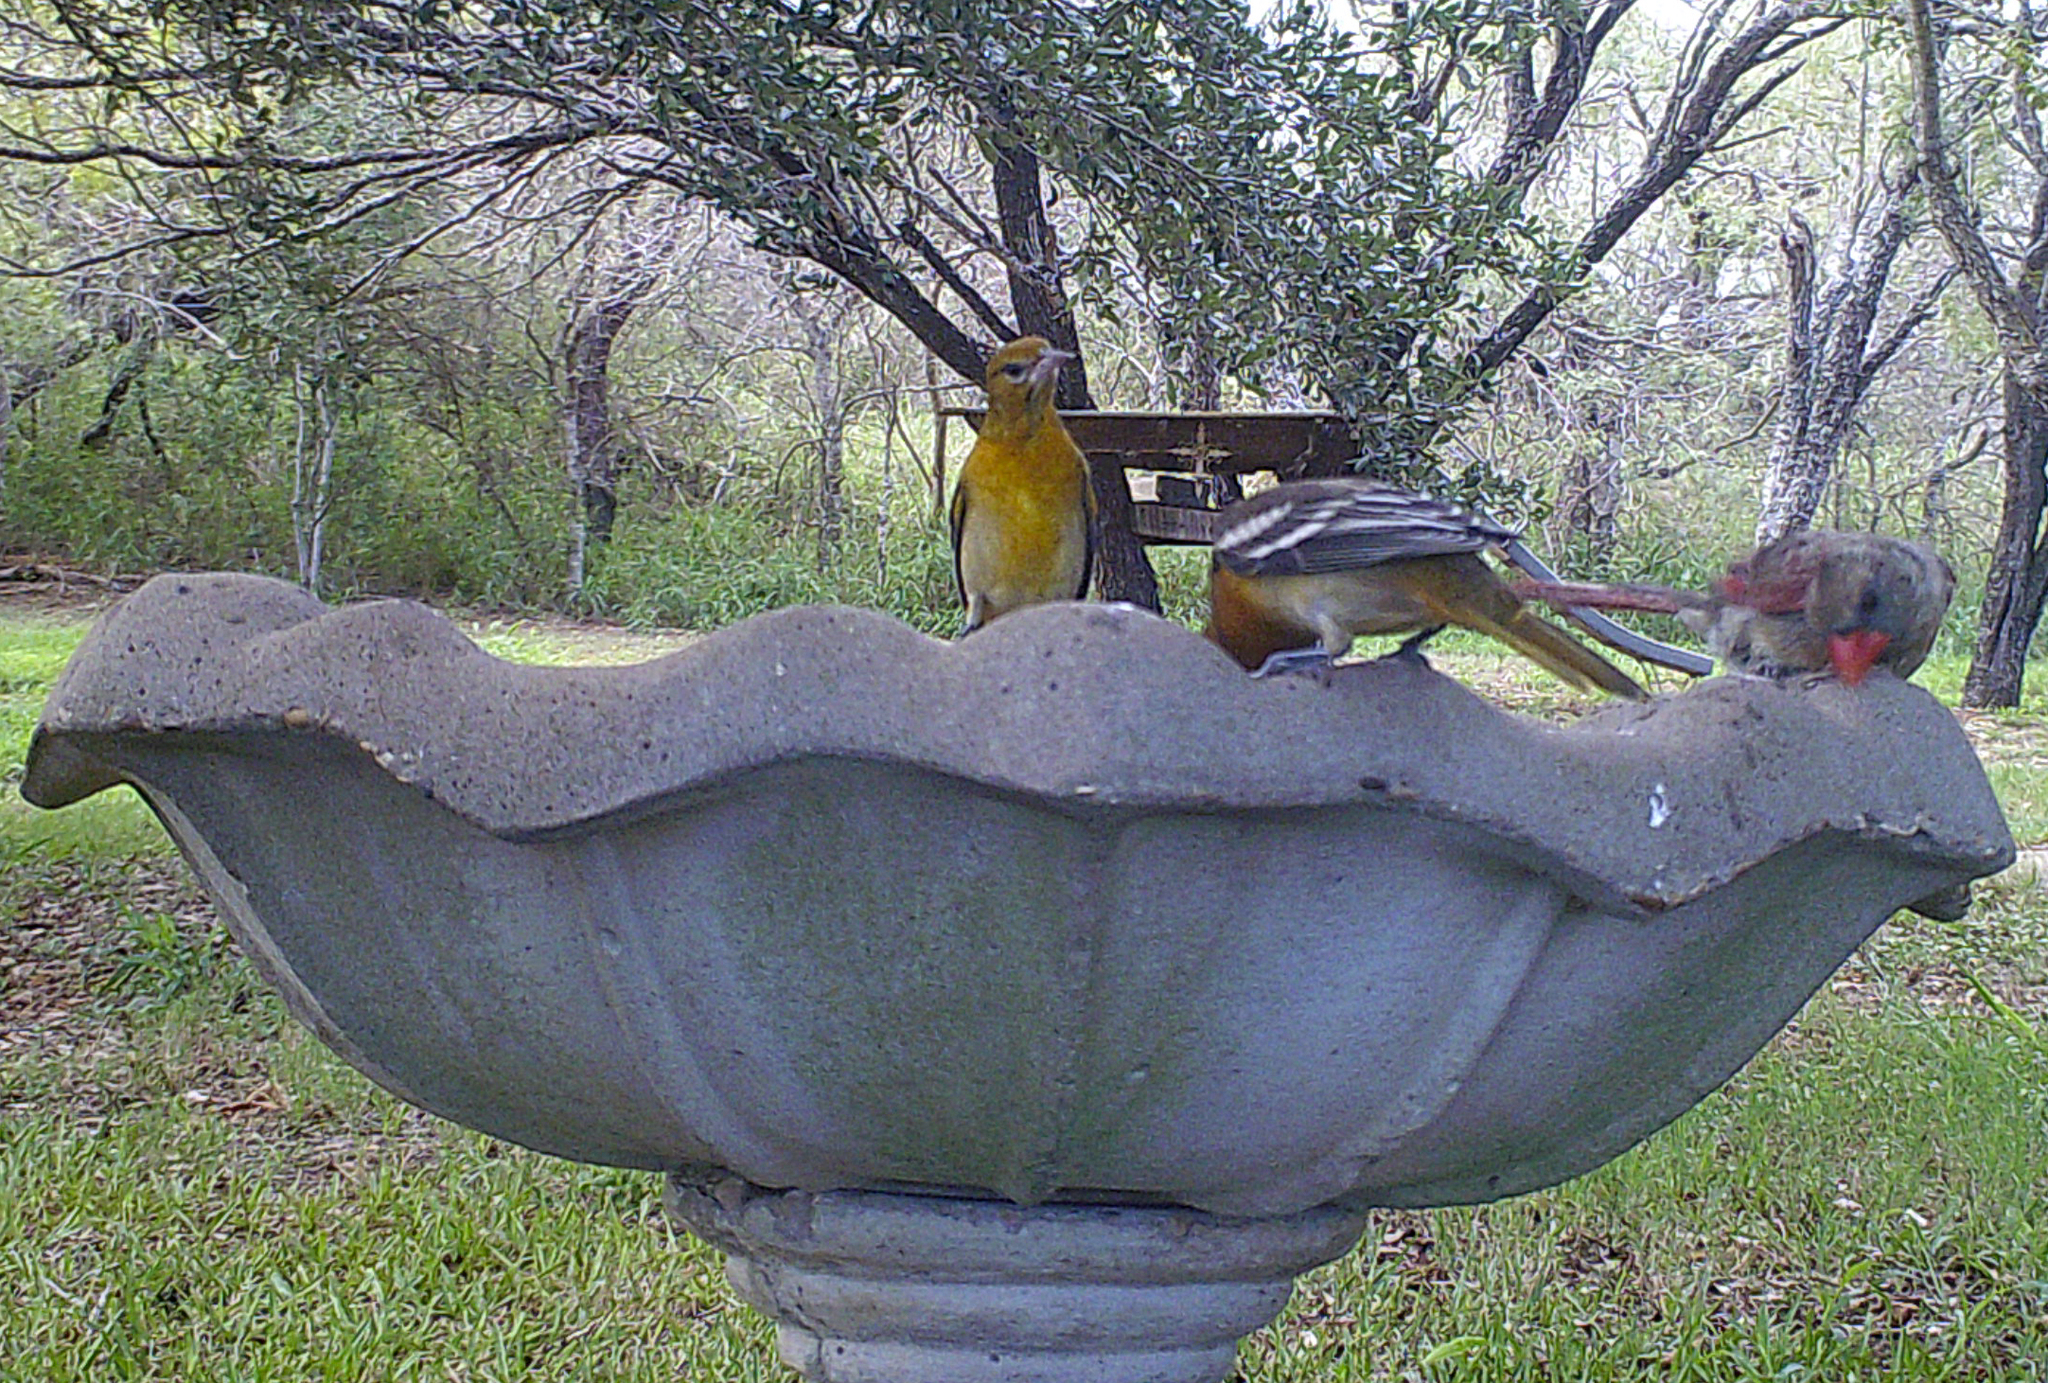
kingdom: Animalia
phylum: Chordata
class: Aves
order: Passeriformes
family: Icteridae
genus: Icterus
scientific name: Icterus bullockii
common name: Bullock's oriole
